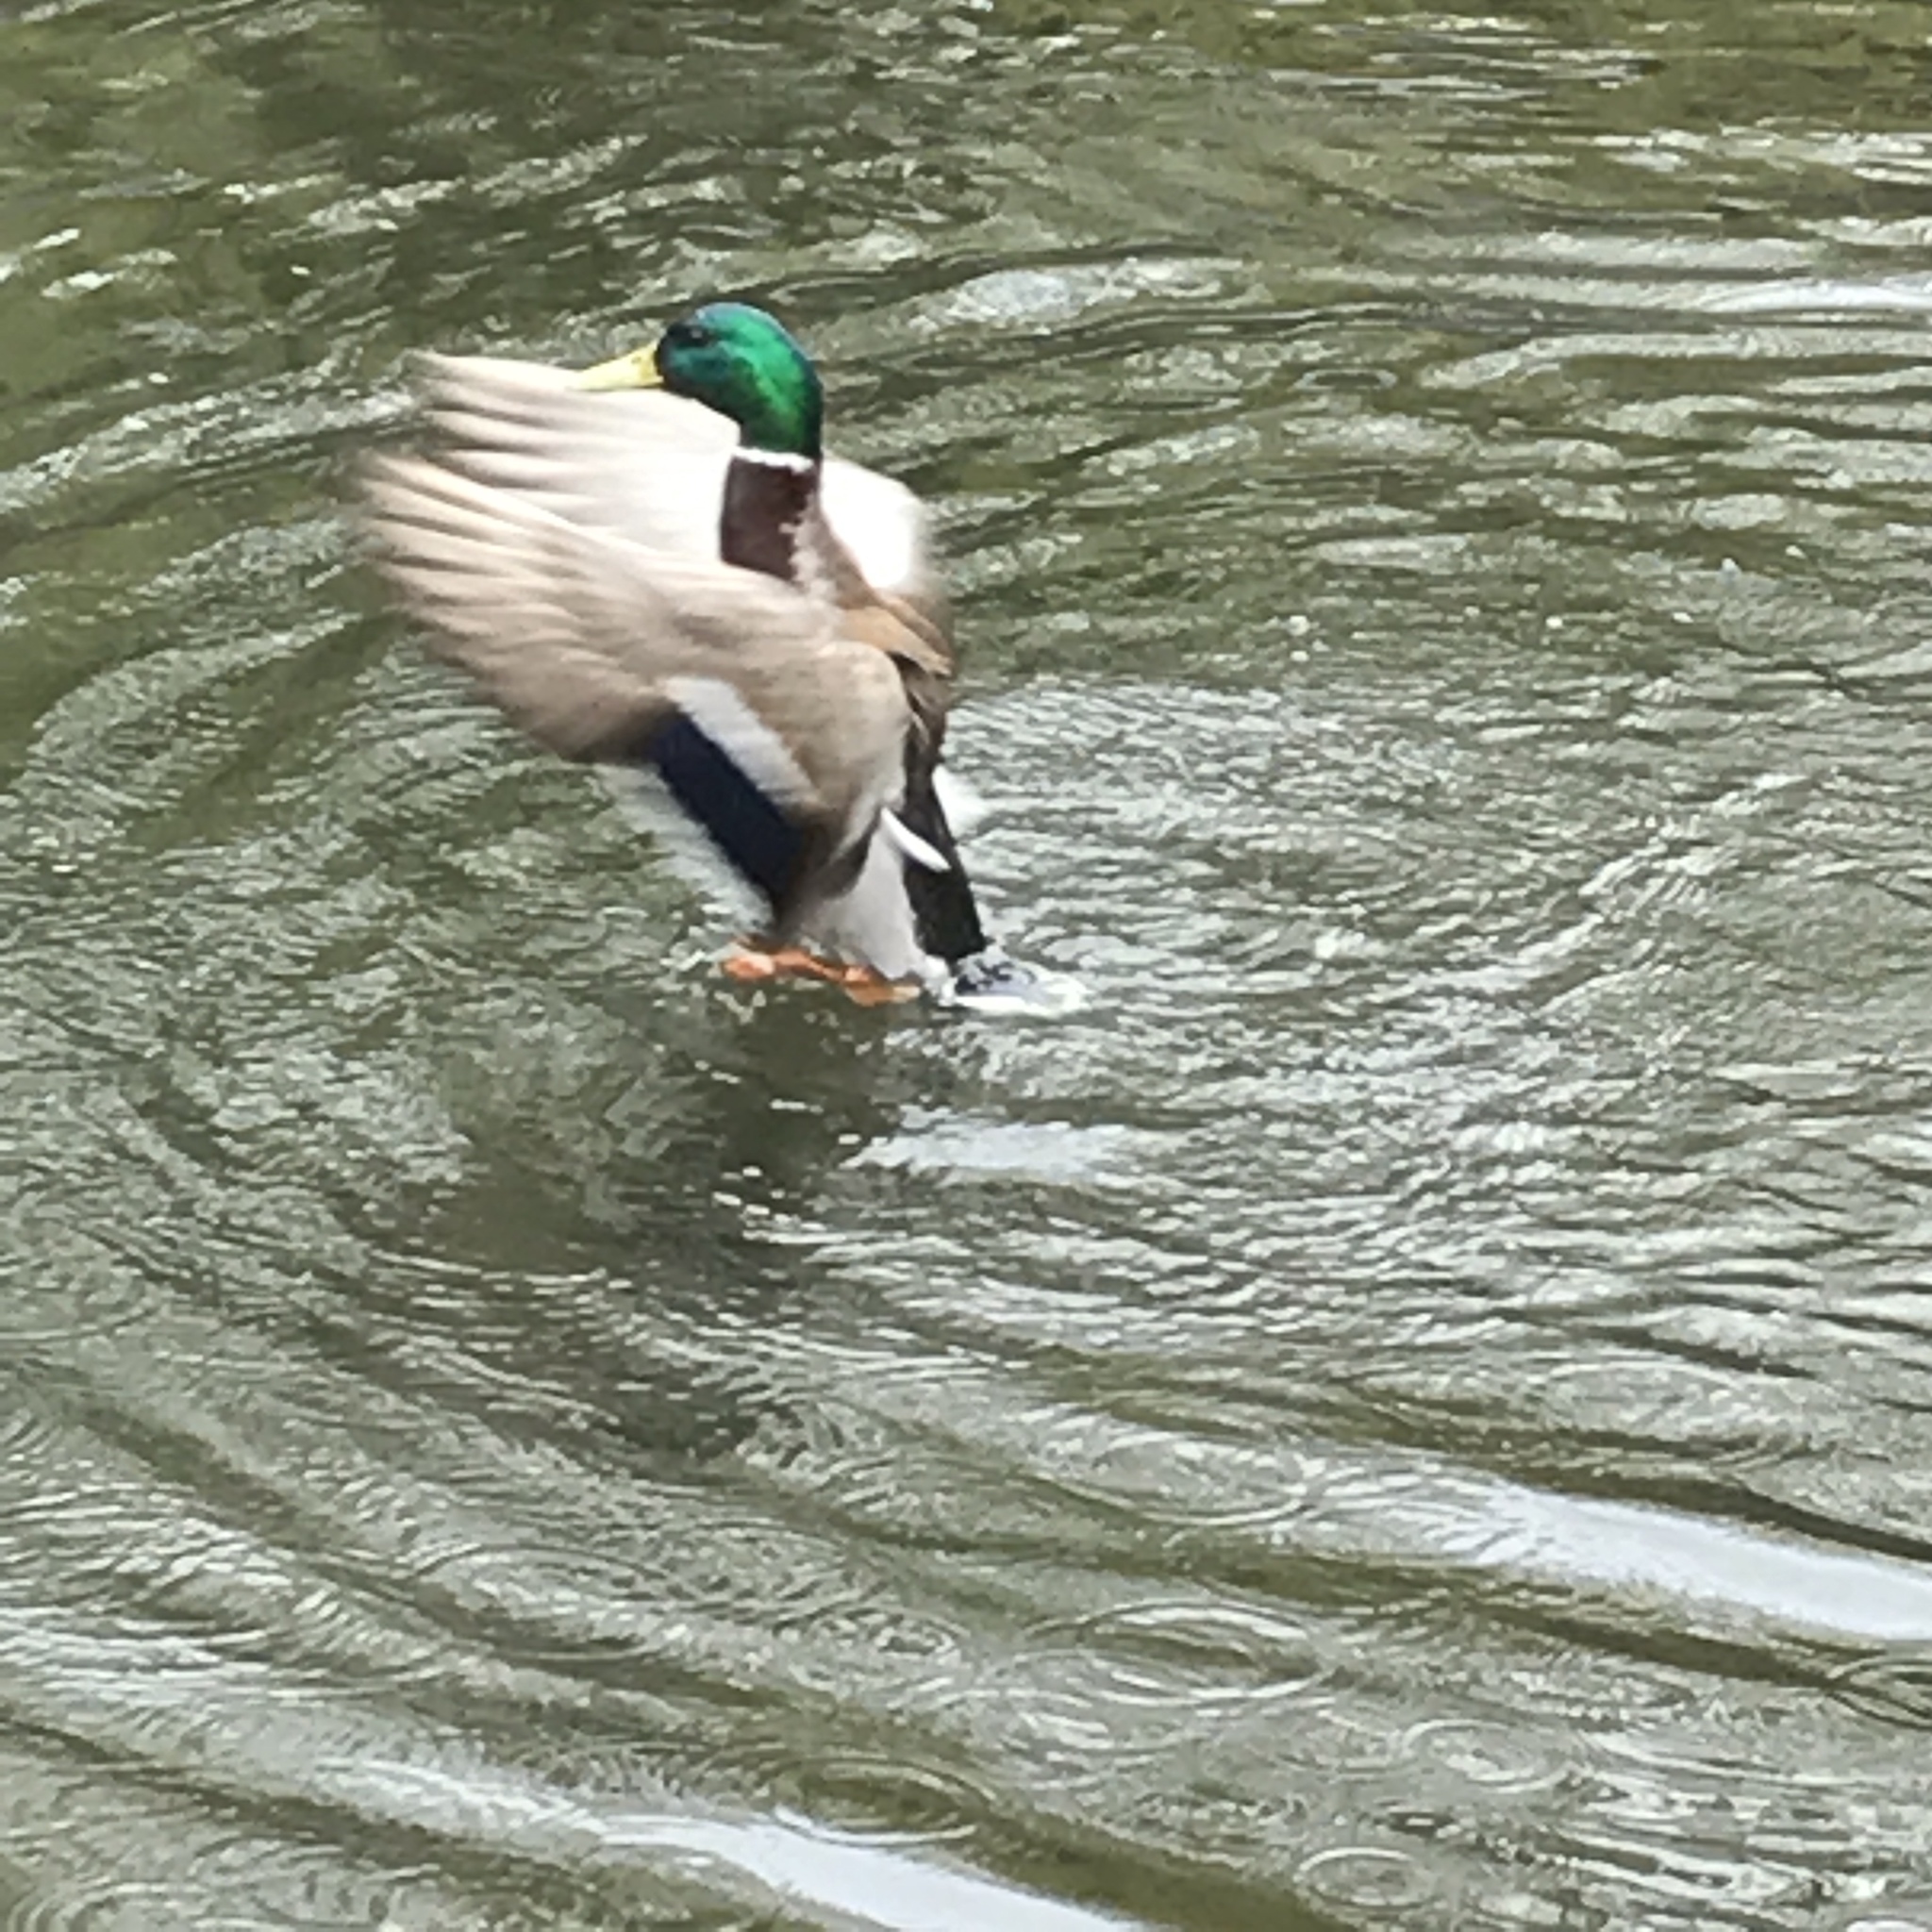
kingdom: Animalia
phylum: Chordata
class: Aves
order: Anseriformes
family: Anatidae
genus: Anas
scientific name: Anas platyrhynchos
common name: Mallard
